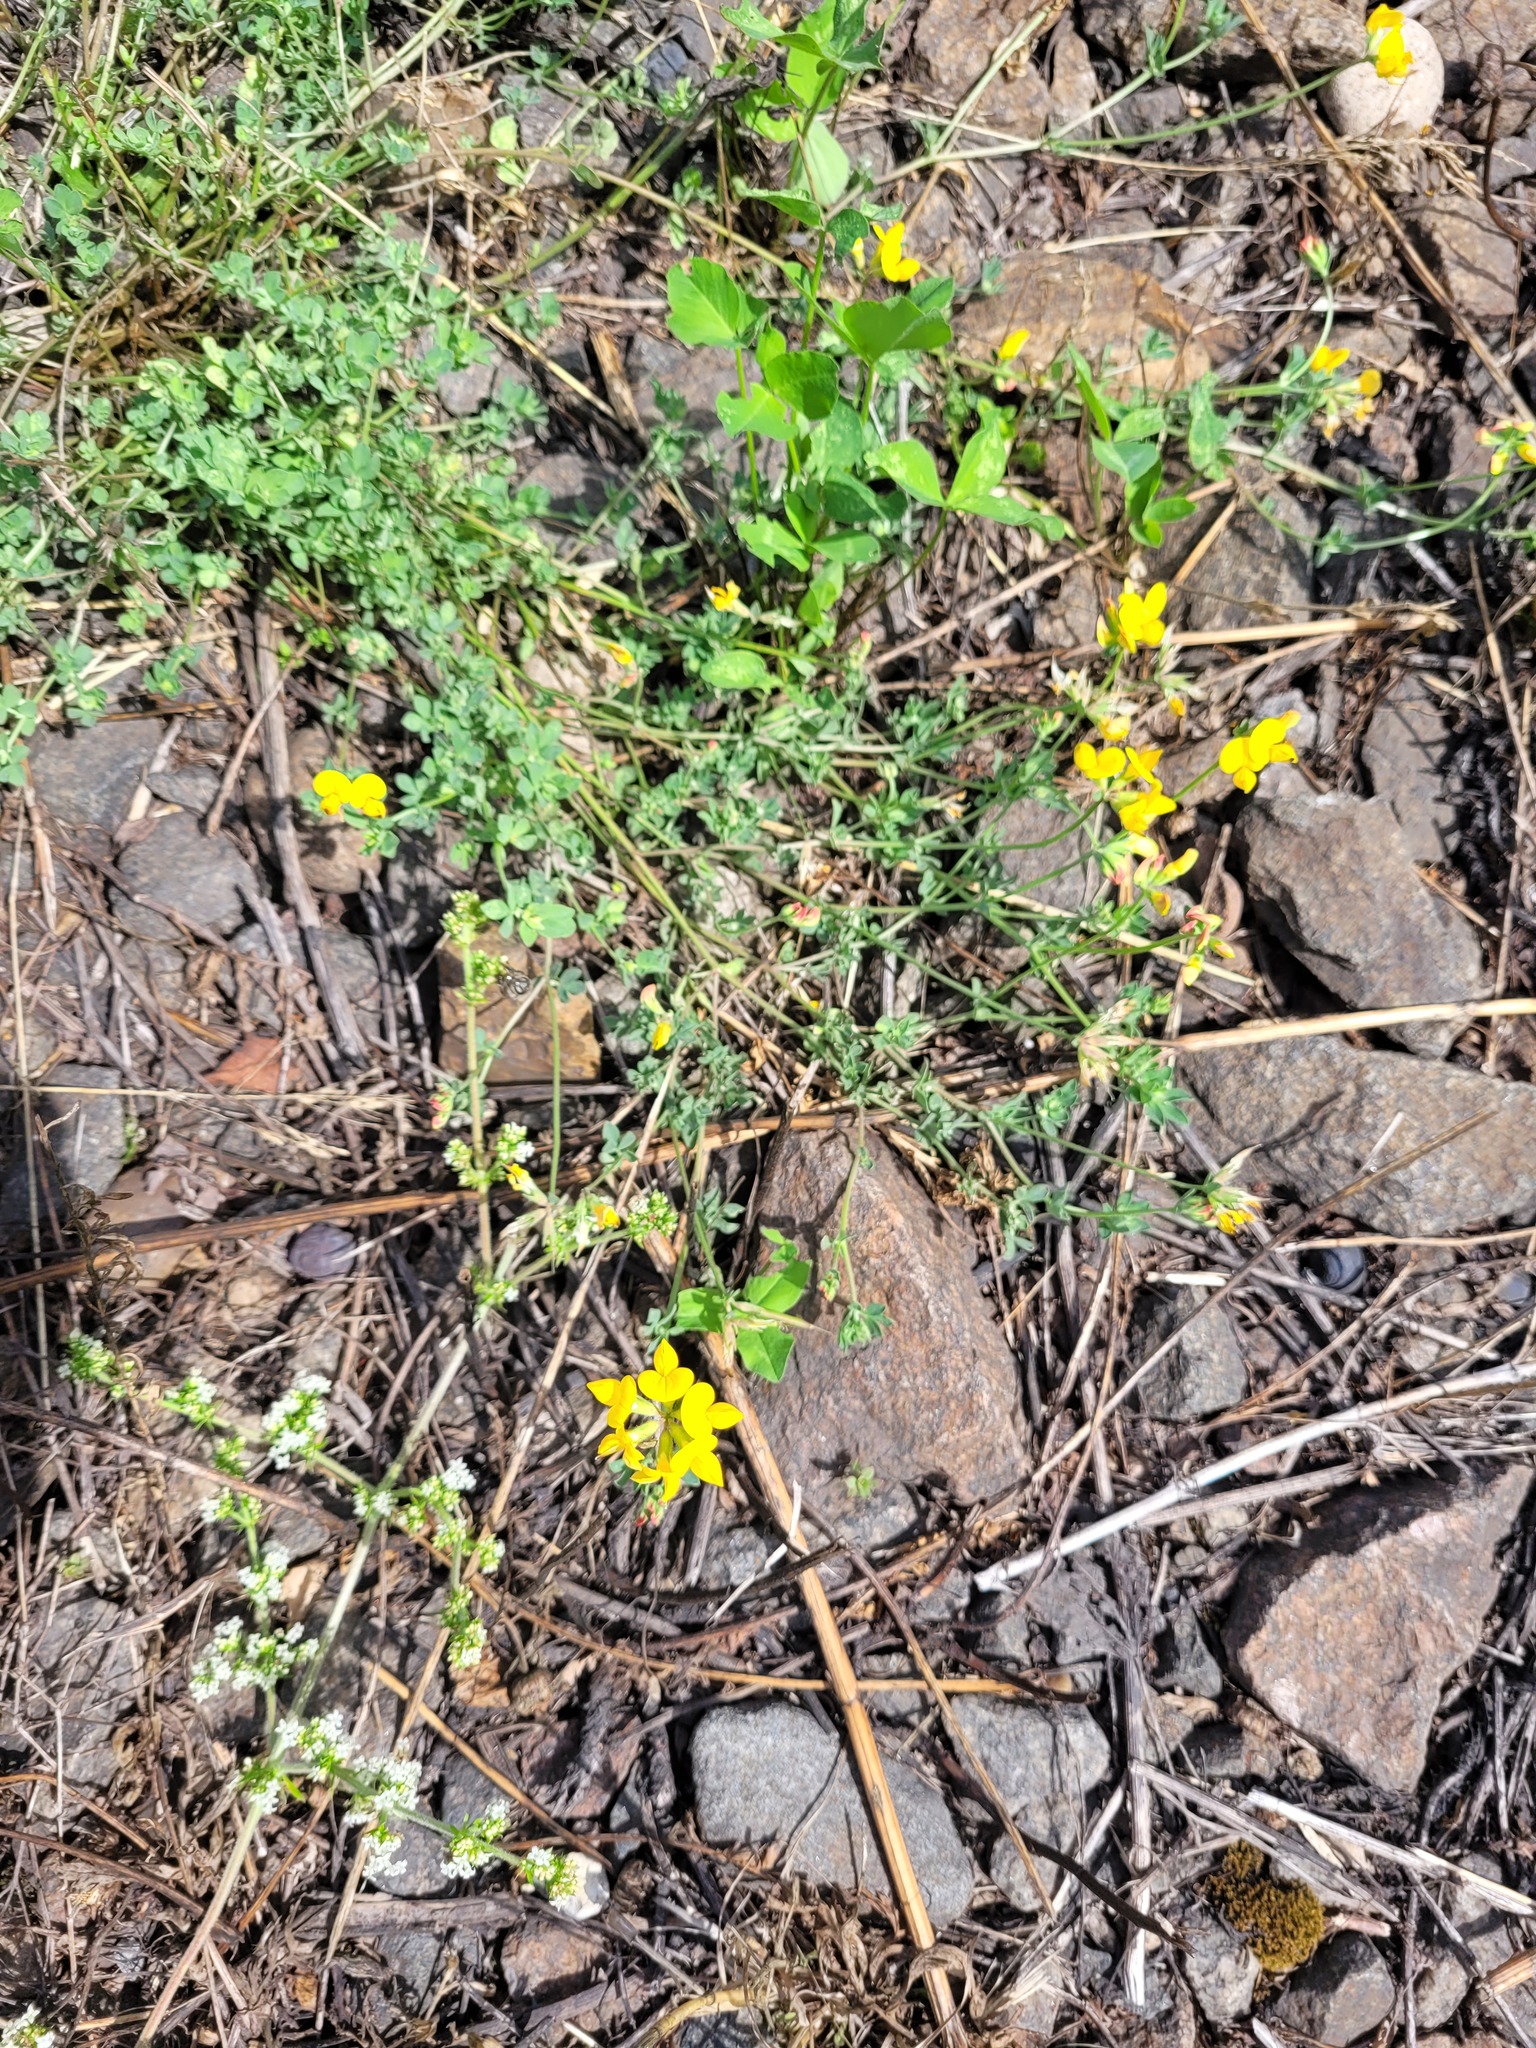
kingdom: Plantae
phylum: Tracheophyta
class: Magnoliopsida
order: Fabales
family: Fabaceae
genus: Lotus
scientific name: Lotus corniculatus
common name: Common bird's-foot-trefoil
